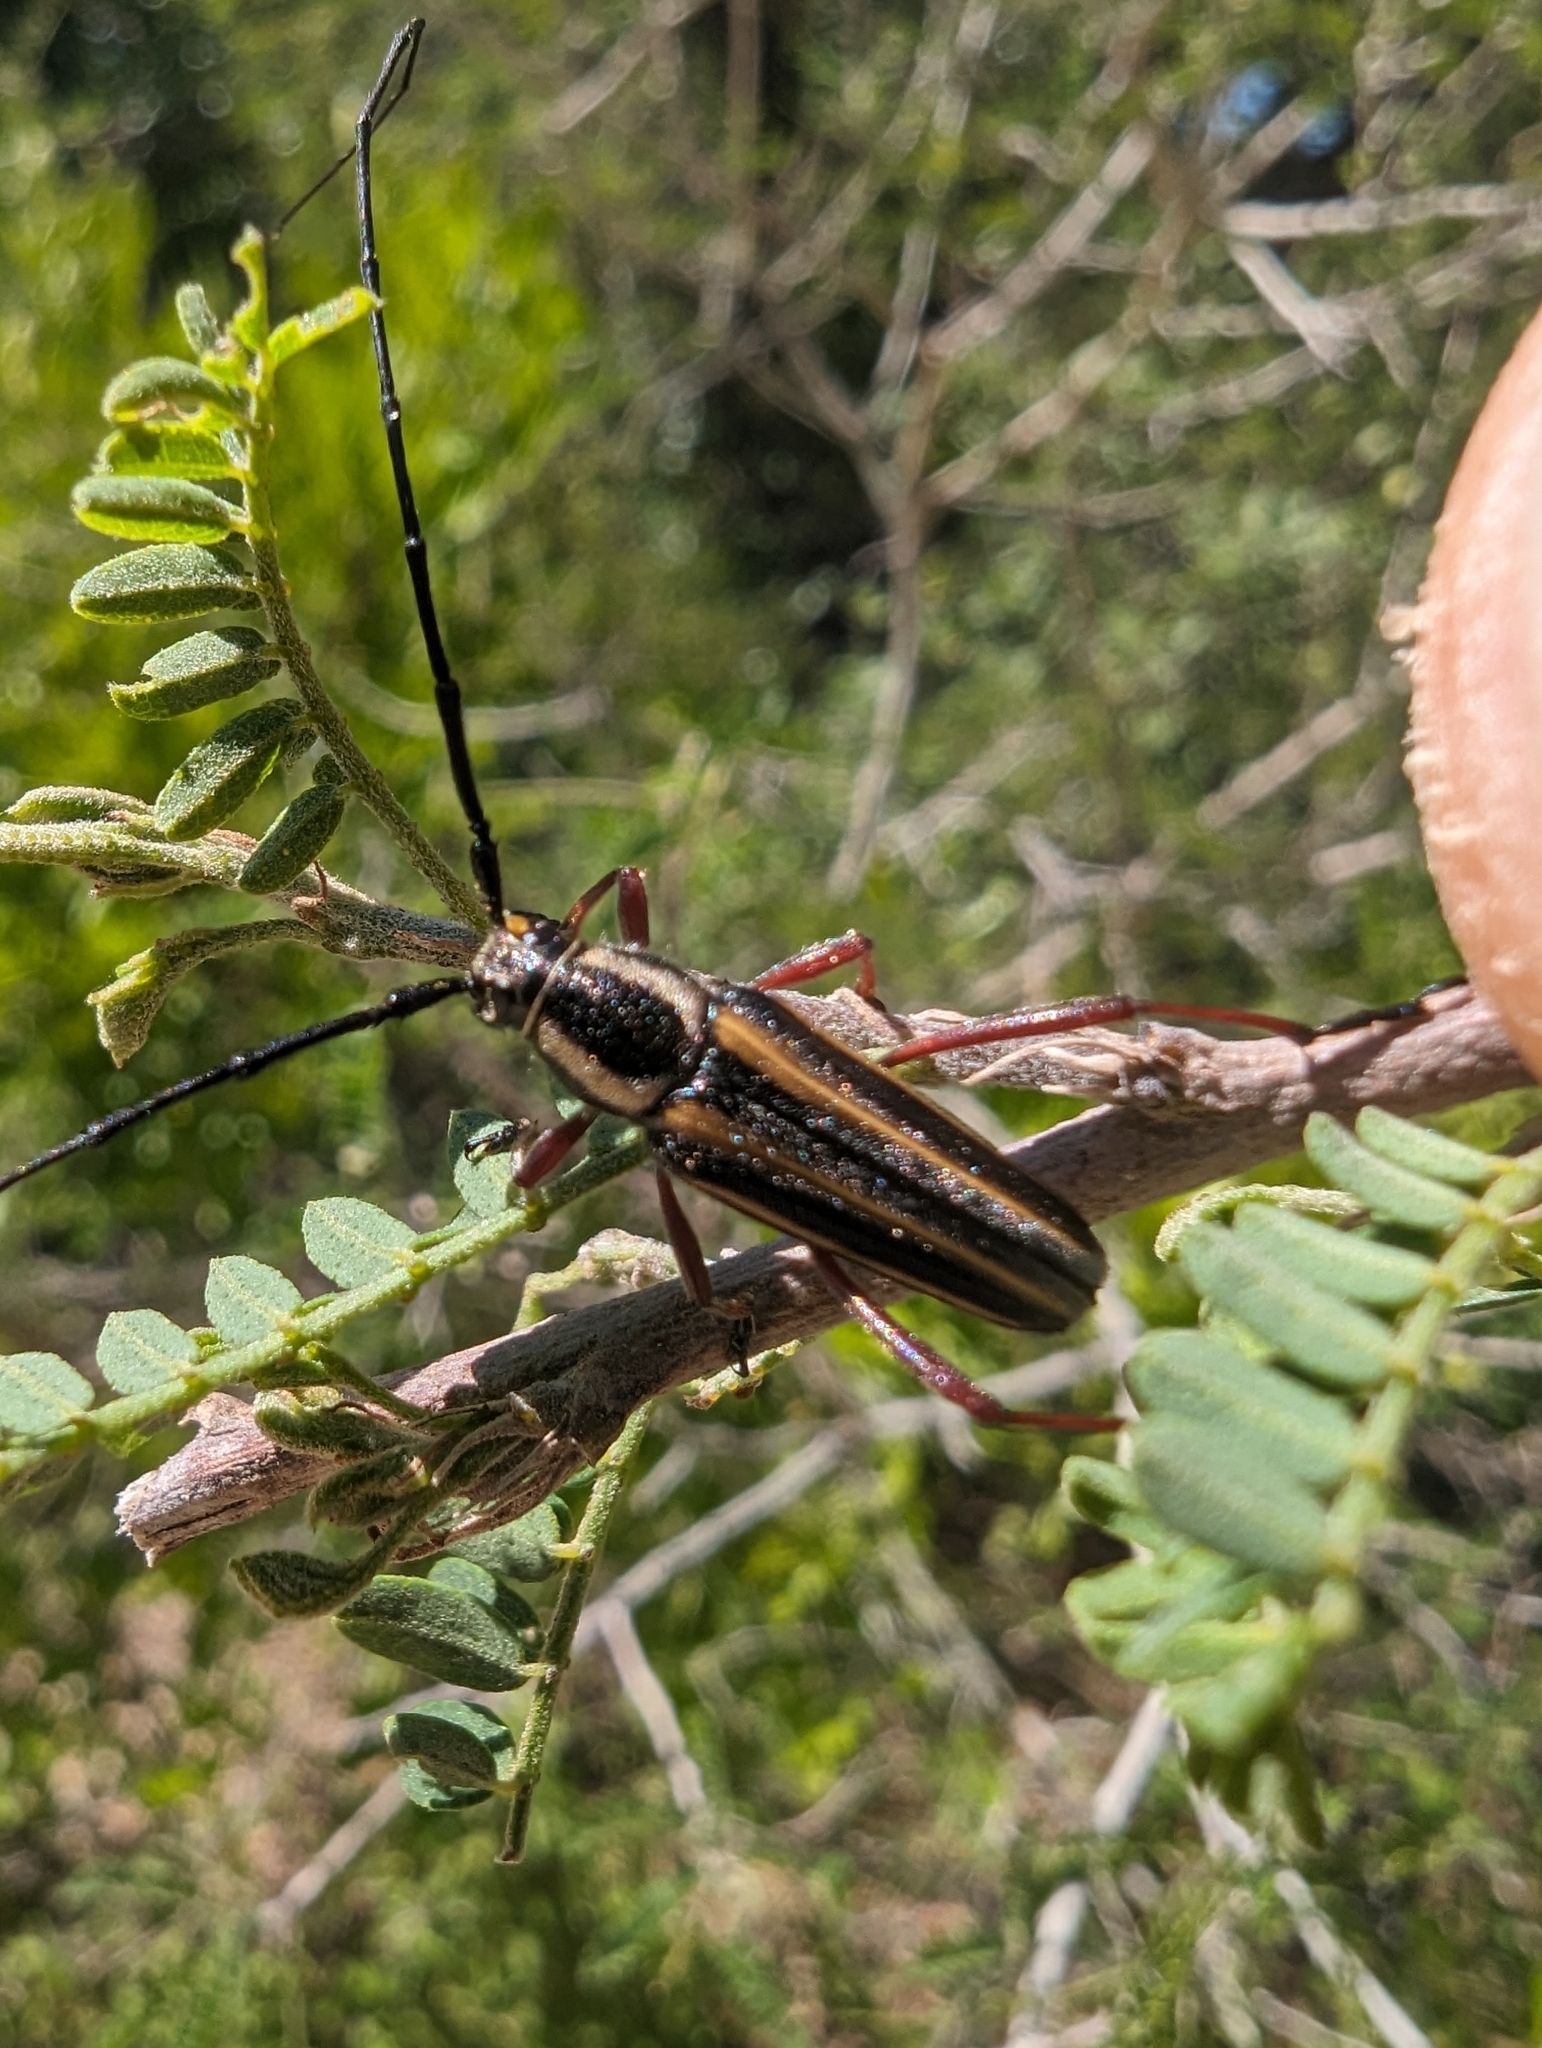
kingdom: Animalia
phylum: Arthropoda
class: Insecta
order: Coleoptera
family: Cerambycidae
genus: Sphaenothecus
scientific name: Sphaenothecus bilineatus
